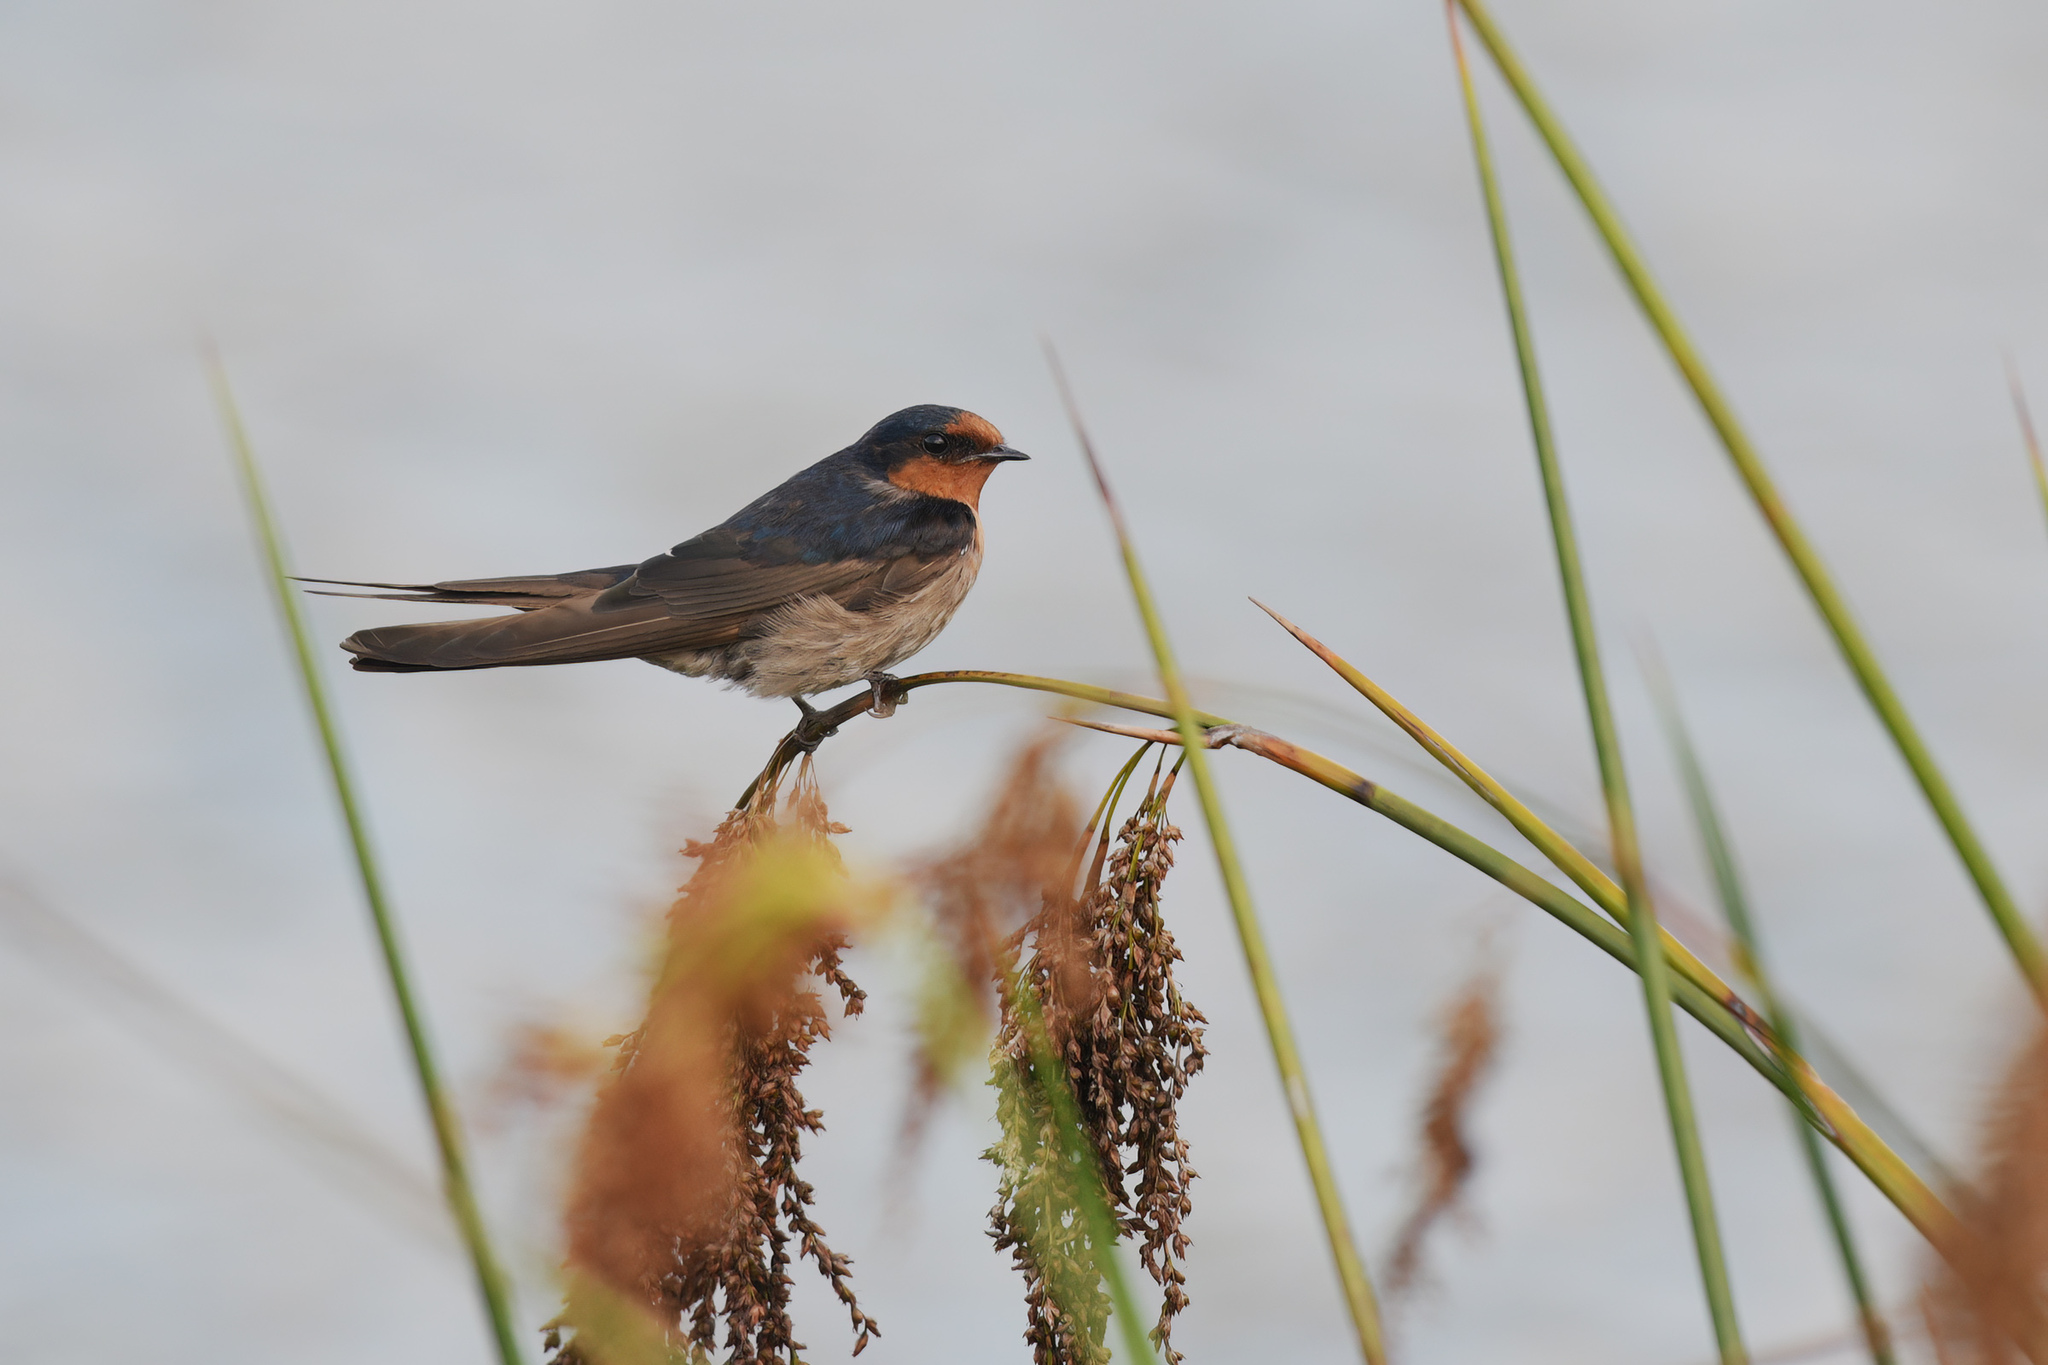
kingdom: Animalia
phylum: Chordata
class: Aves
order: Passeriformes
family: Hirundinidae
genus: Hirundo
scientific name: Hirundo neoxena
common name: Welcome swallow
